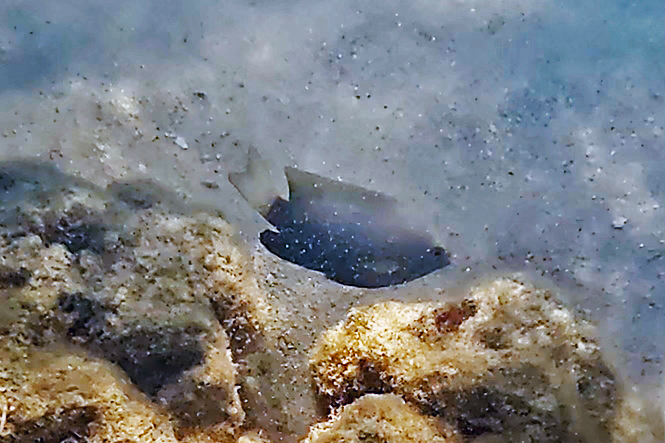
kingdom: Animalia
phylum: Chordata
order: Perciformes
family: Pomacentridae
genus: Plectroglyphidodon
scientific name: Plectroglyphidodon lacrymatus
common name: Jewel damsel
